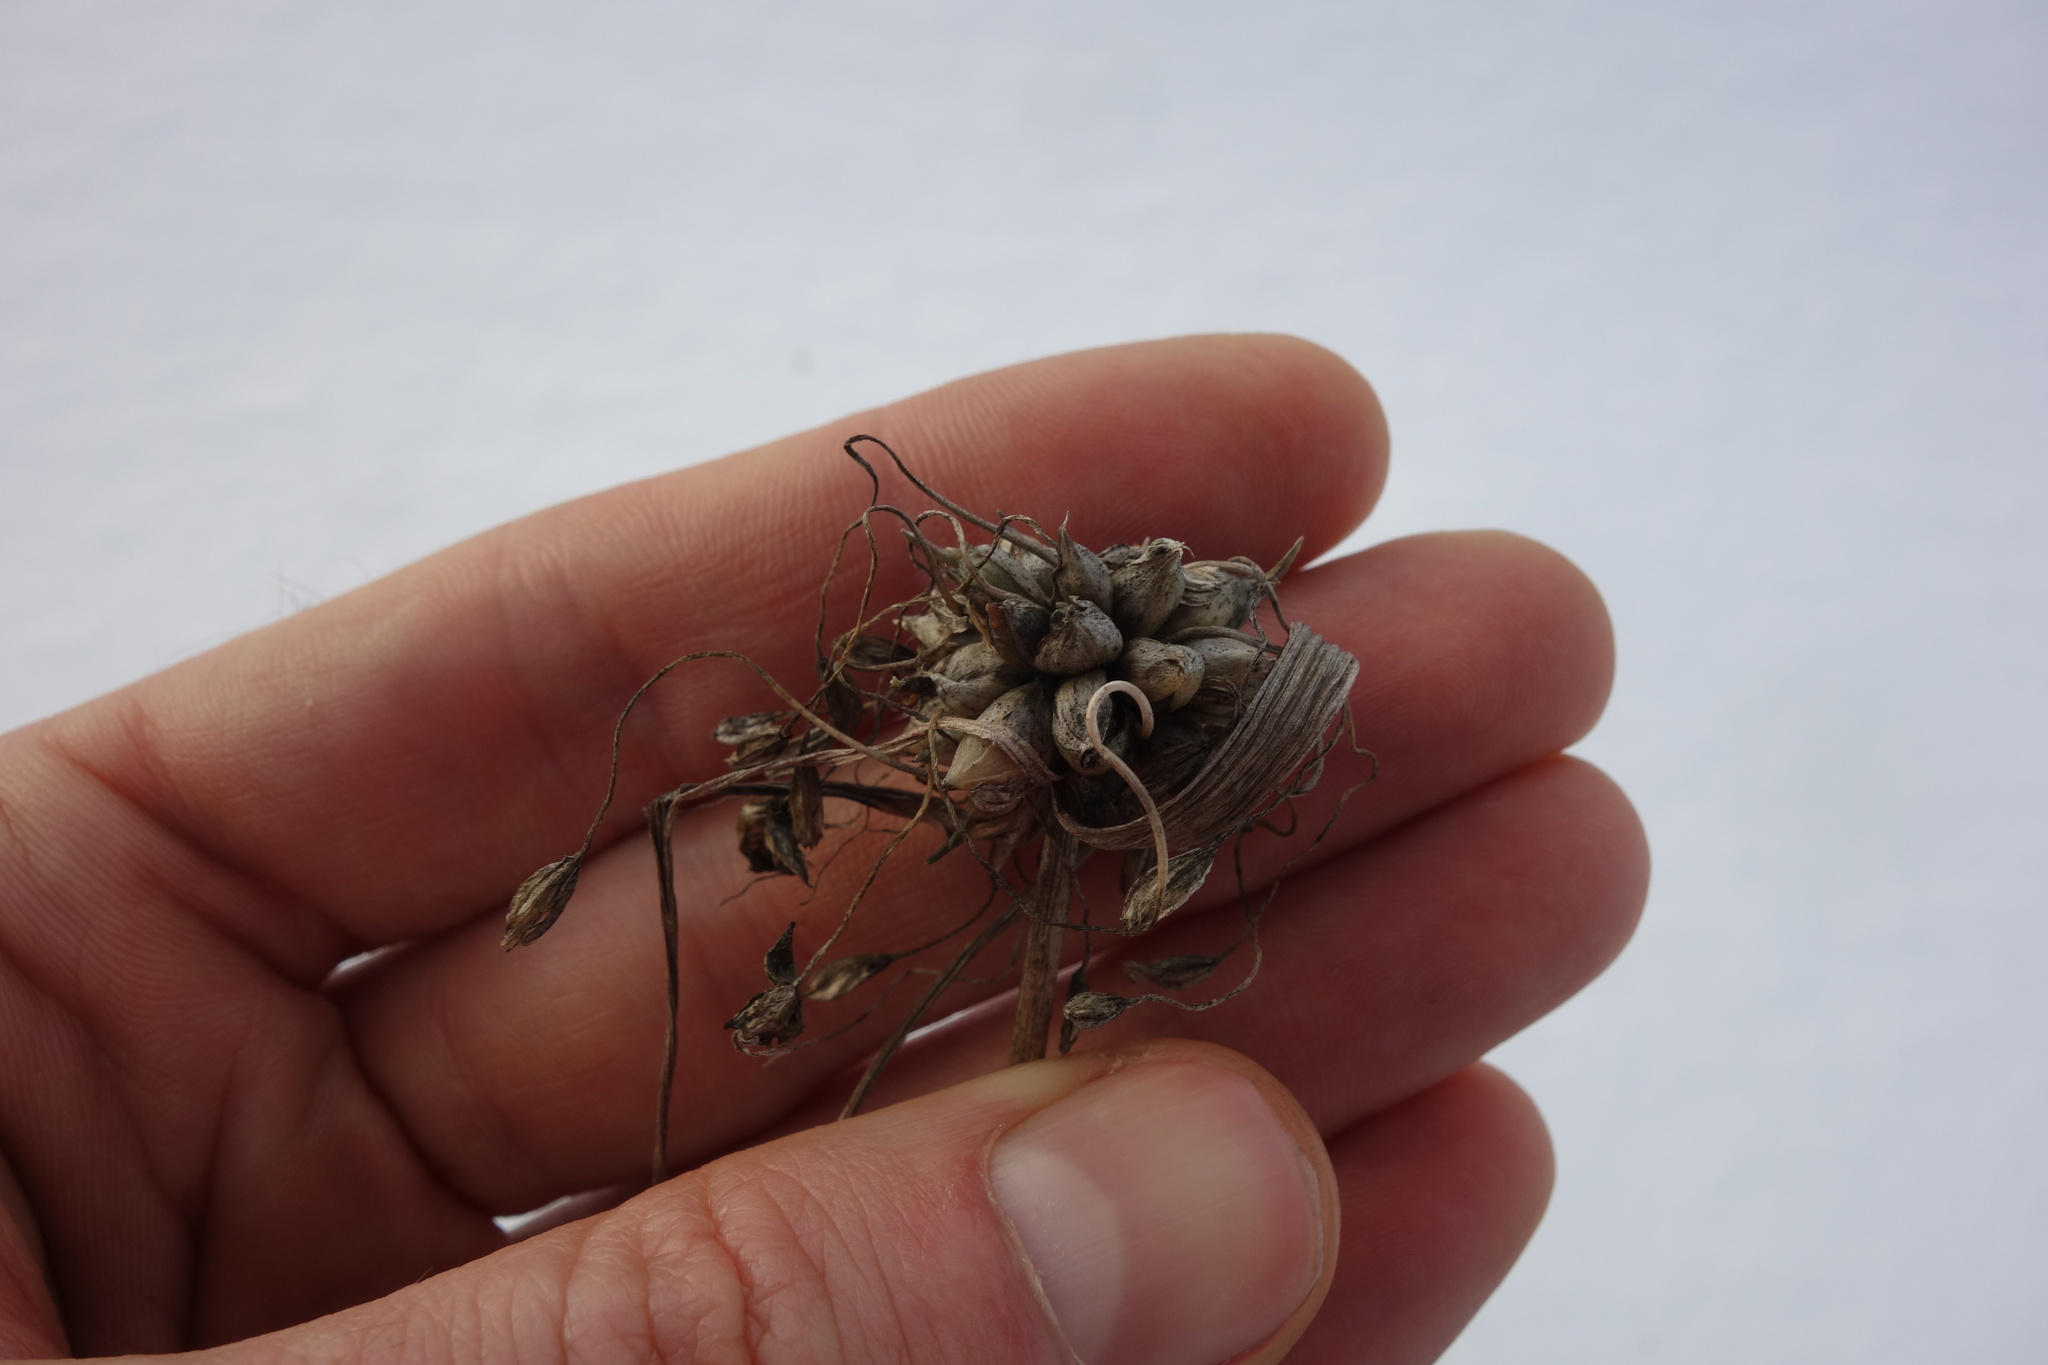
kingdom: Plantae
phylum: Tracheophyta
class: Liliopsida
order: Asparagales
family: Amaryllidaceae
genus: Allium
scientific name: Allium oleraceum
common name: Field garlic
